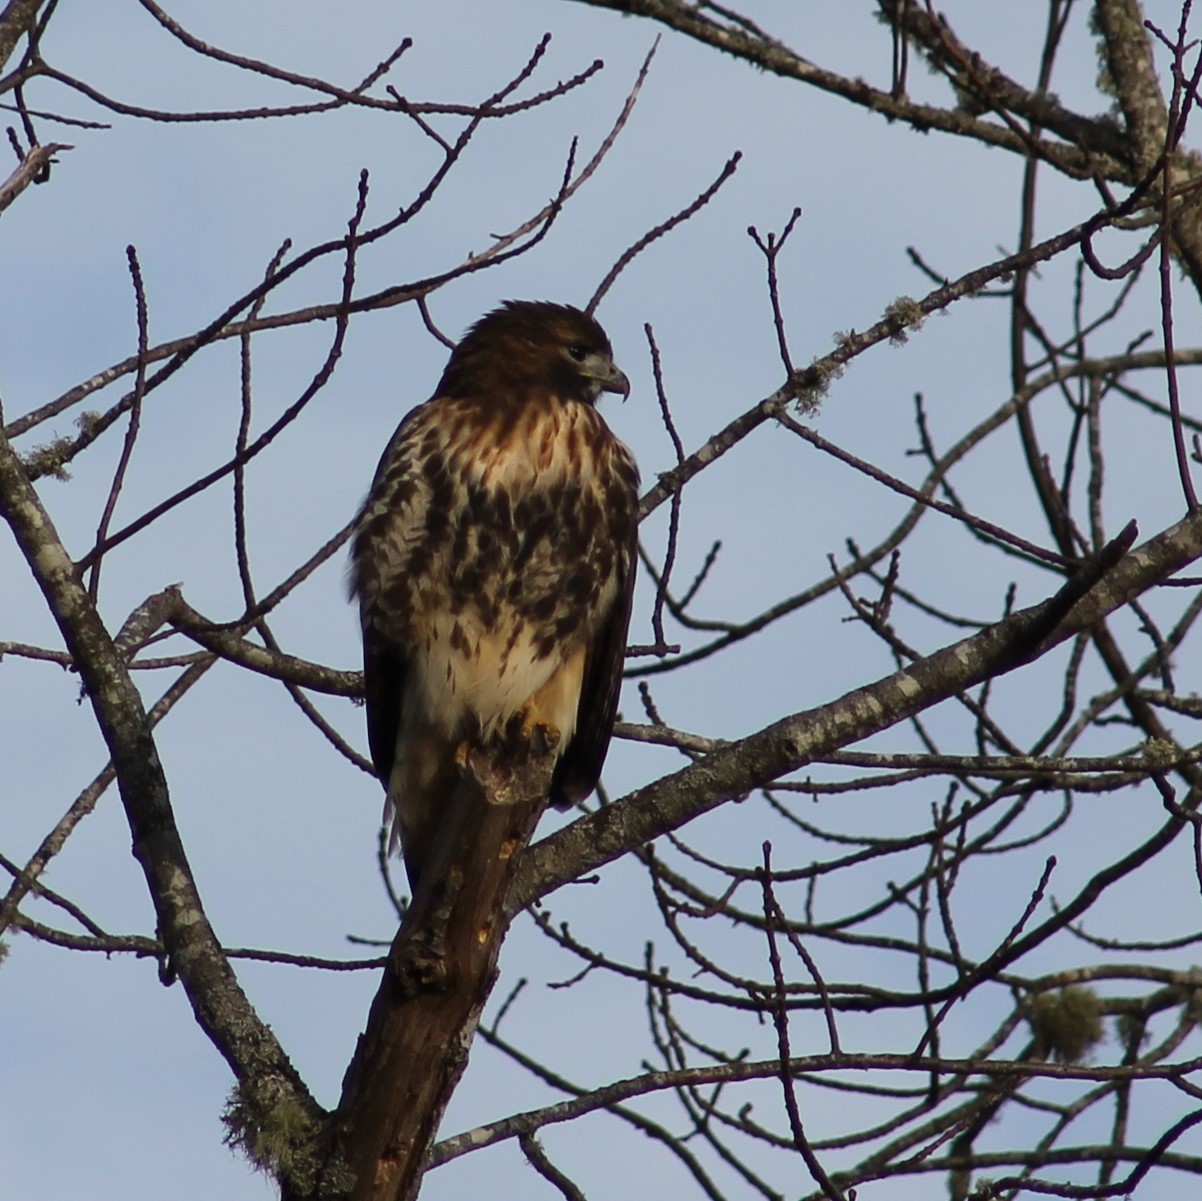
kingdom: Animalia
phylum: Chordata
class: Aves
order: Accipitriformes
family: Accipitridae
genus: Buteo
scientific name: Buteo jamaicensis
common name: Red-tailed hawk
